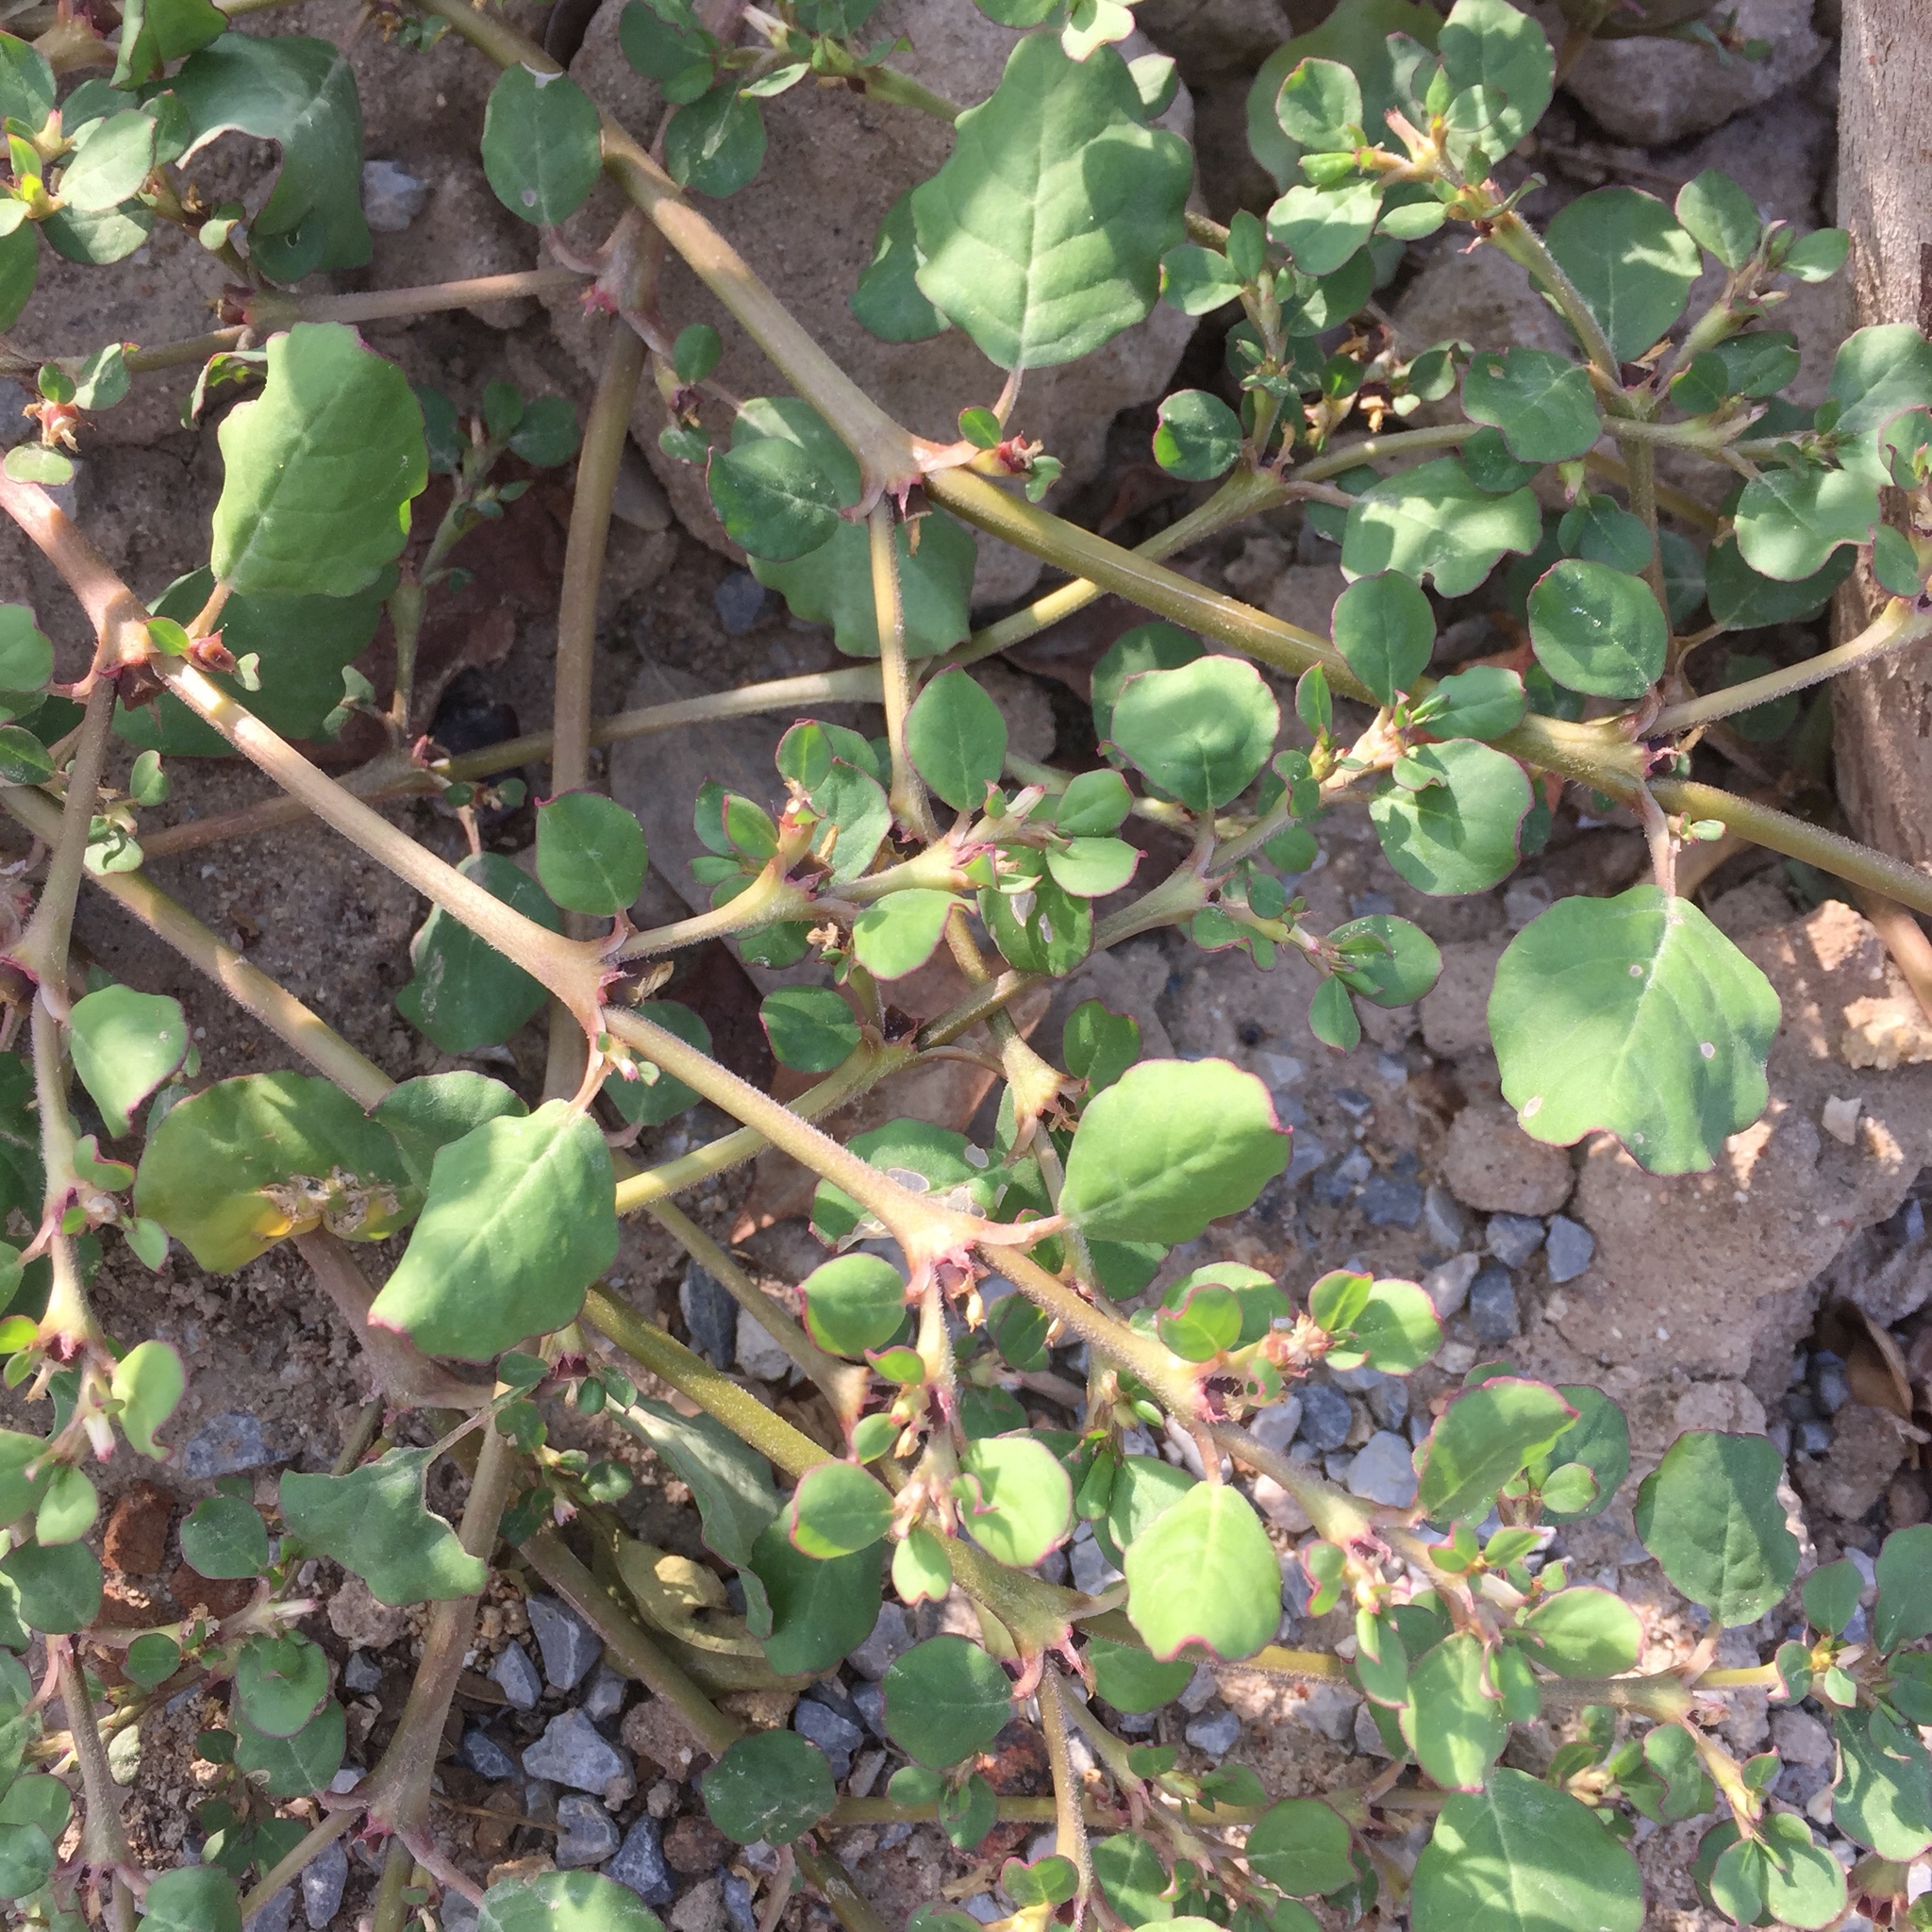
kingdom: Plantae
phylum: Tracheophyta
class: Magnoliopsida
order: Caryophyllales
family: Aizoaceae
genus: Trianthema
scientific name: Trianthema portulacastrum
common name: Desert horsepurslane
